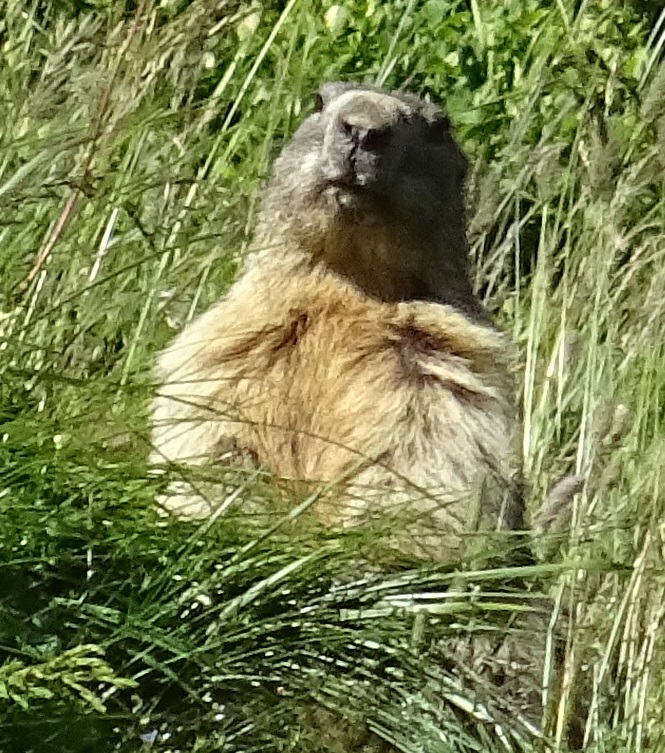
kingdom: Animalia
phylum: Chordata
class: Mammalia
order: Rodentia
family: Sciuridae
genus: Marmota
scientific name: Marmota marmota
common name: Alpine marmot
